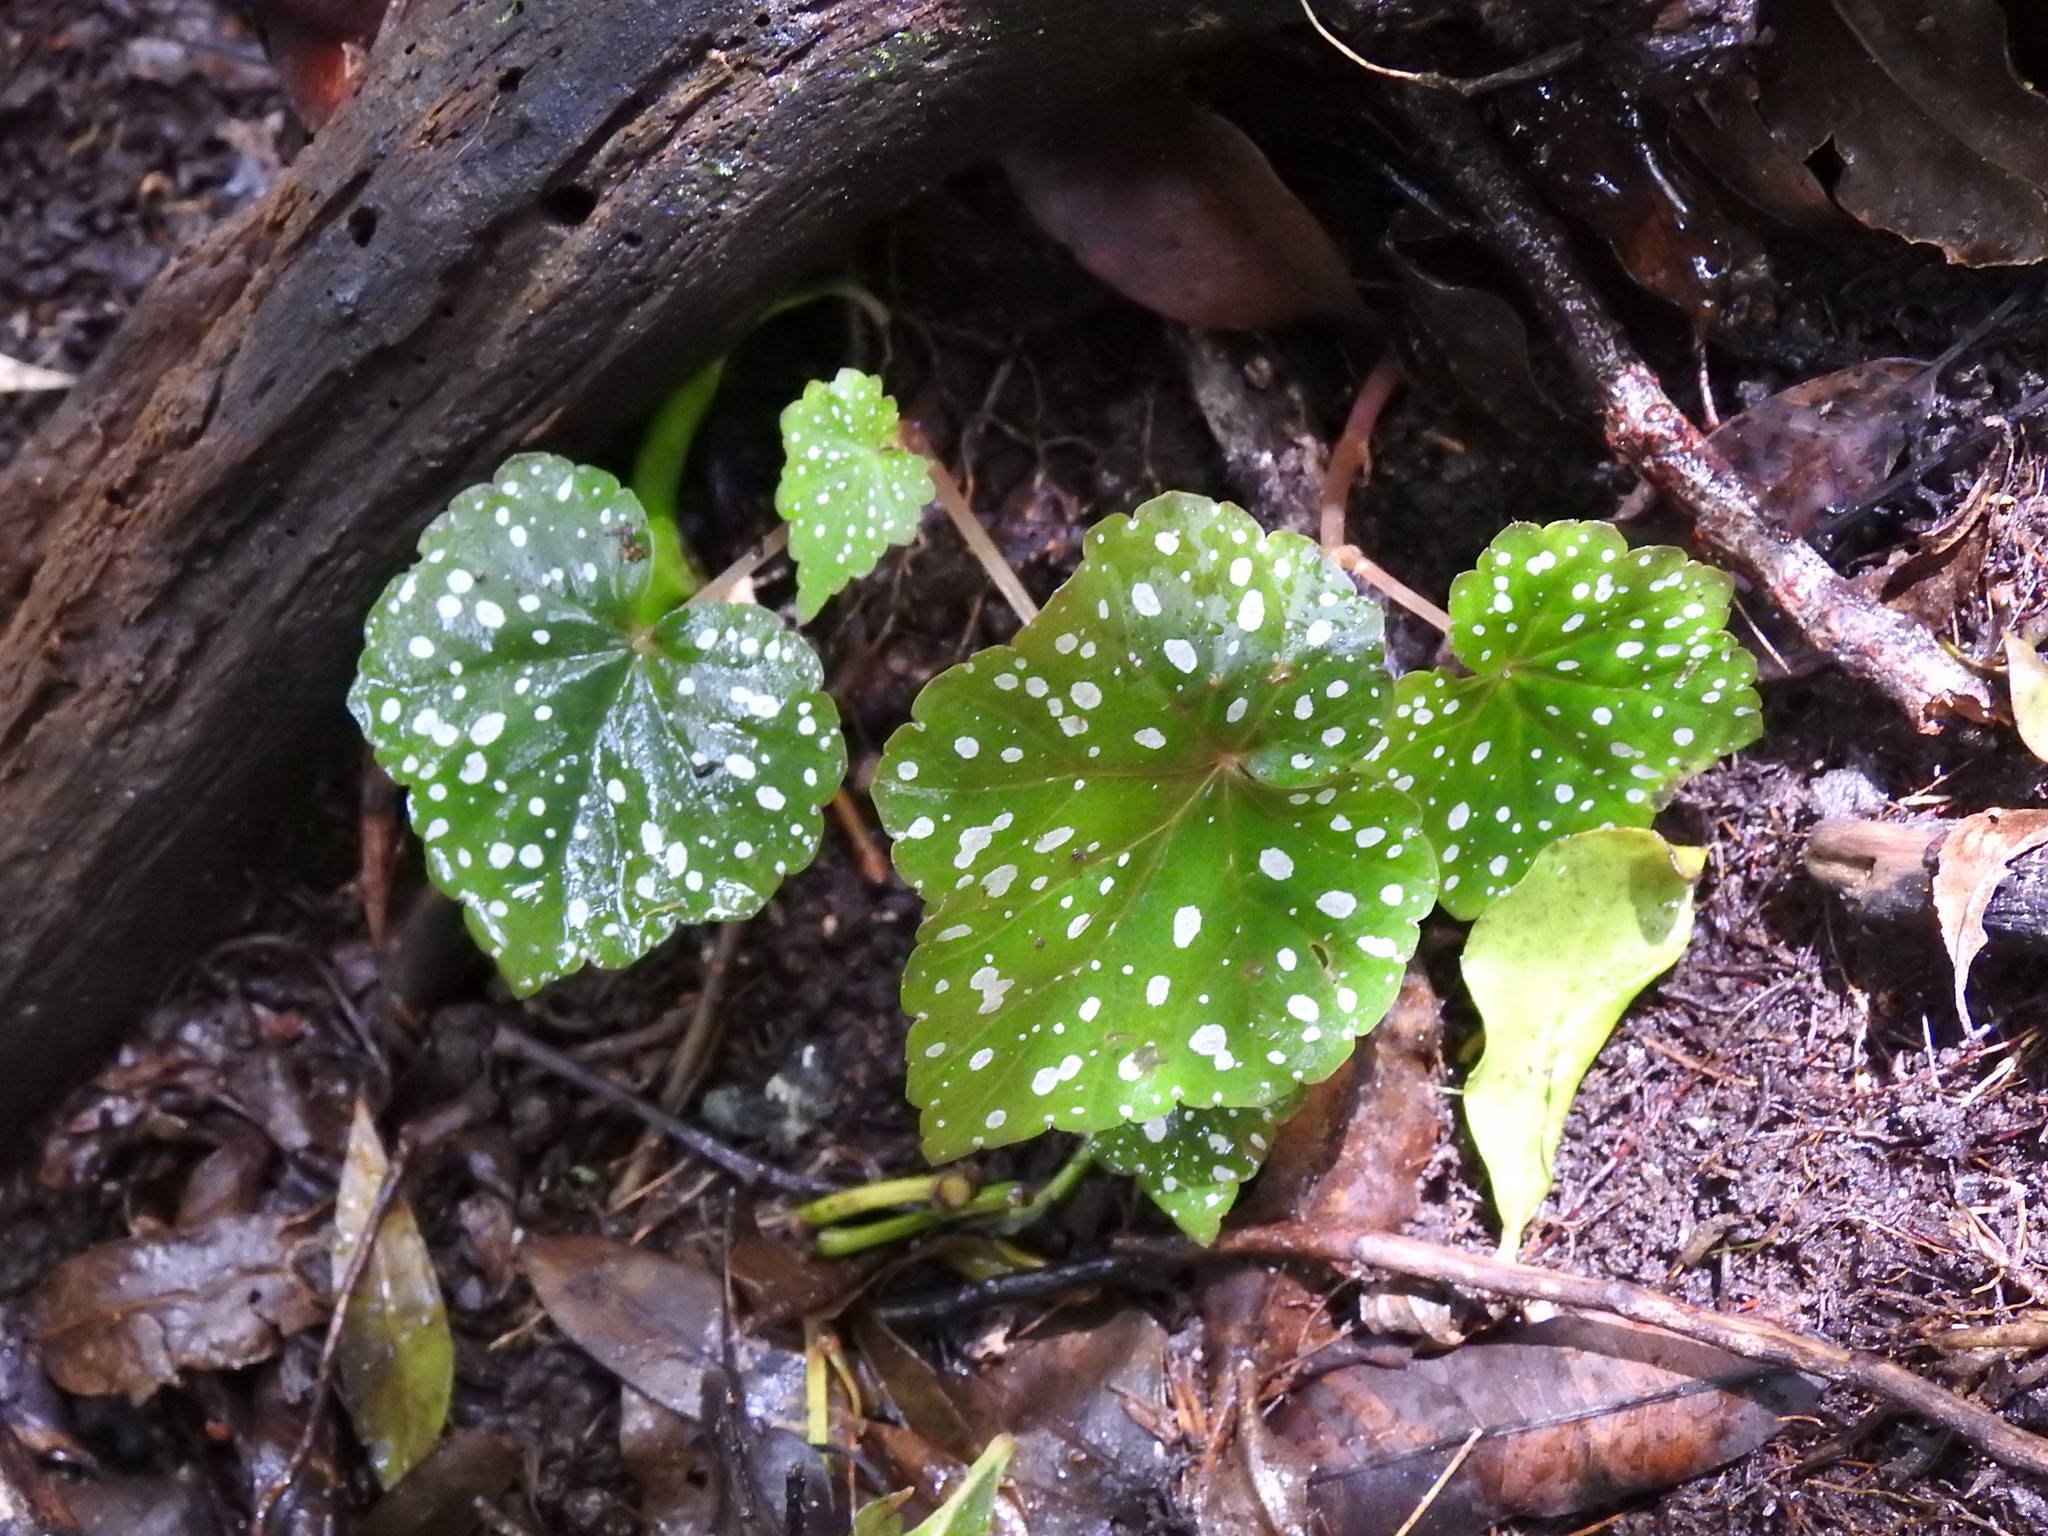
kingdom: Plantae
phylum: Tracheophyta
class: Magnoliopsida
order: Cucurbitales
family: Begoniaceae
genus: Begonia
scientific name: Begonia sonderiana
